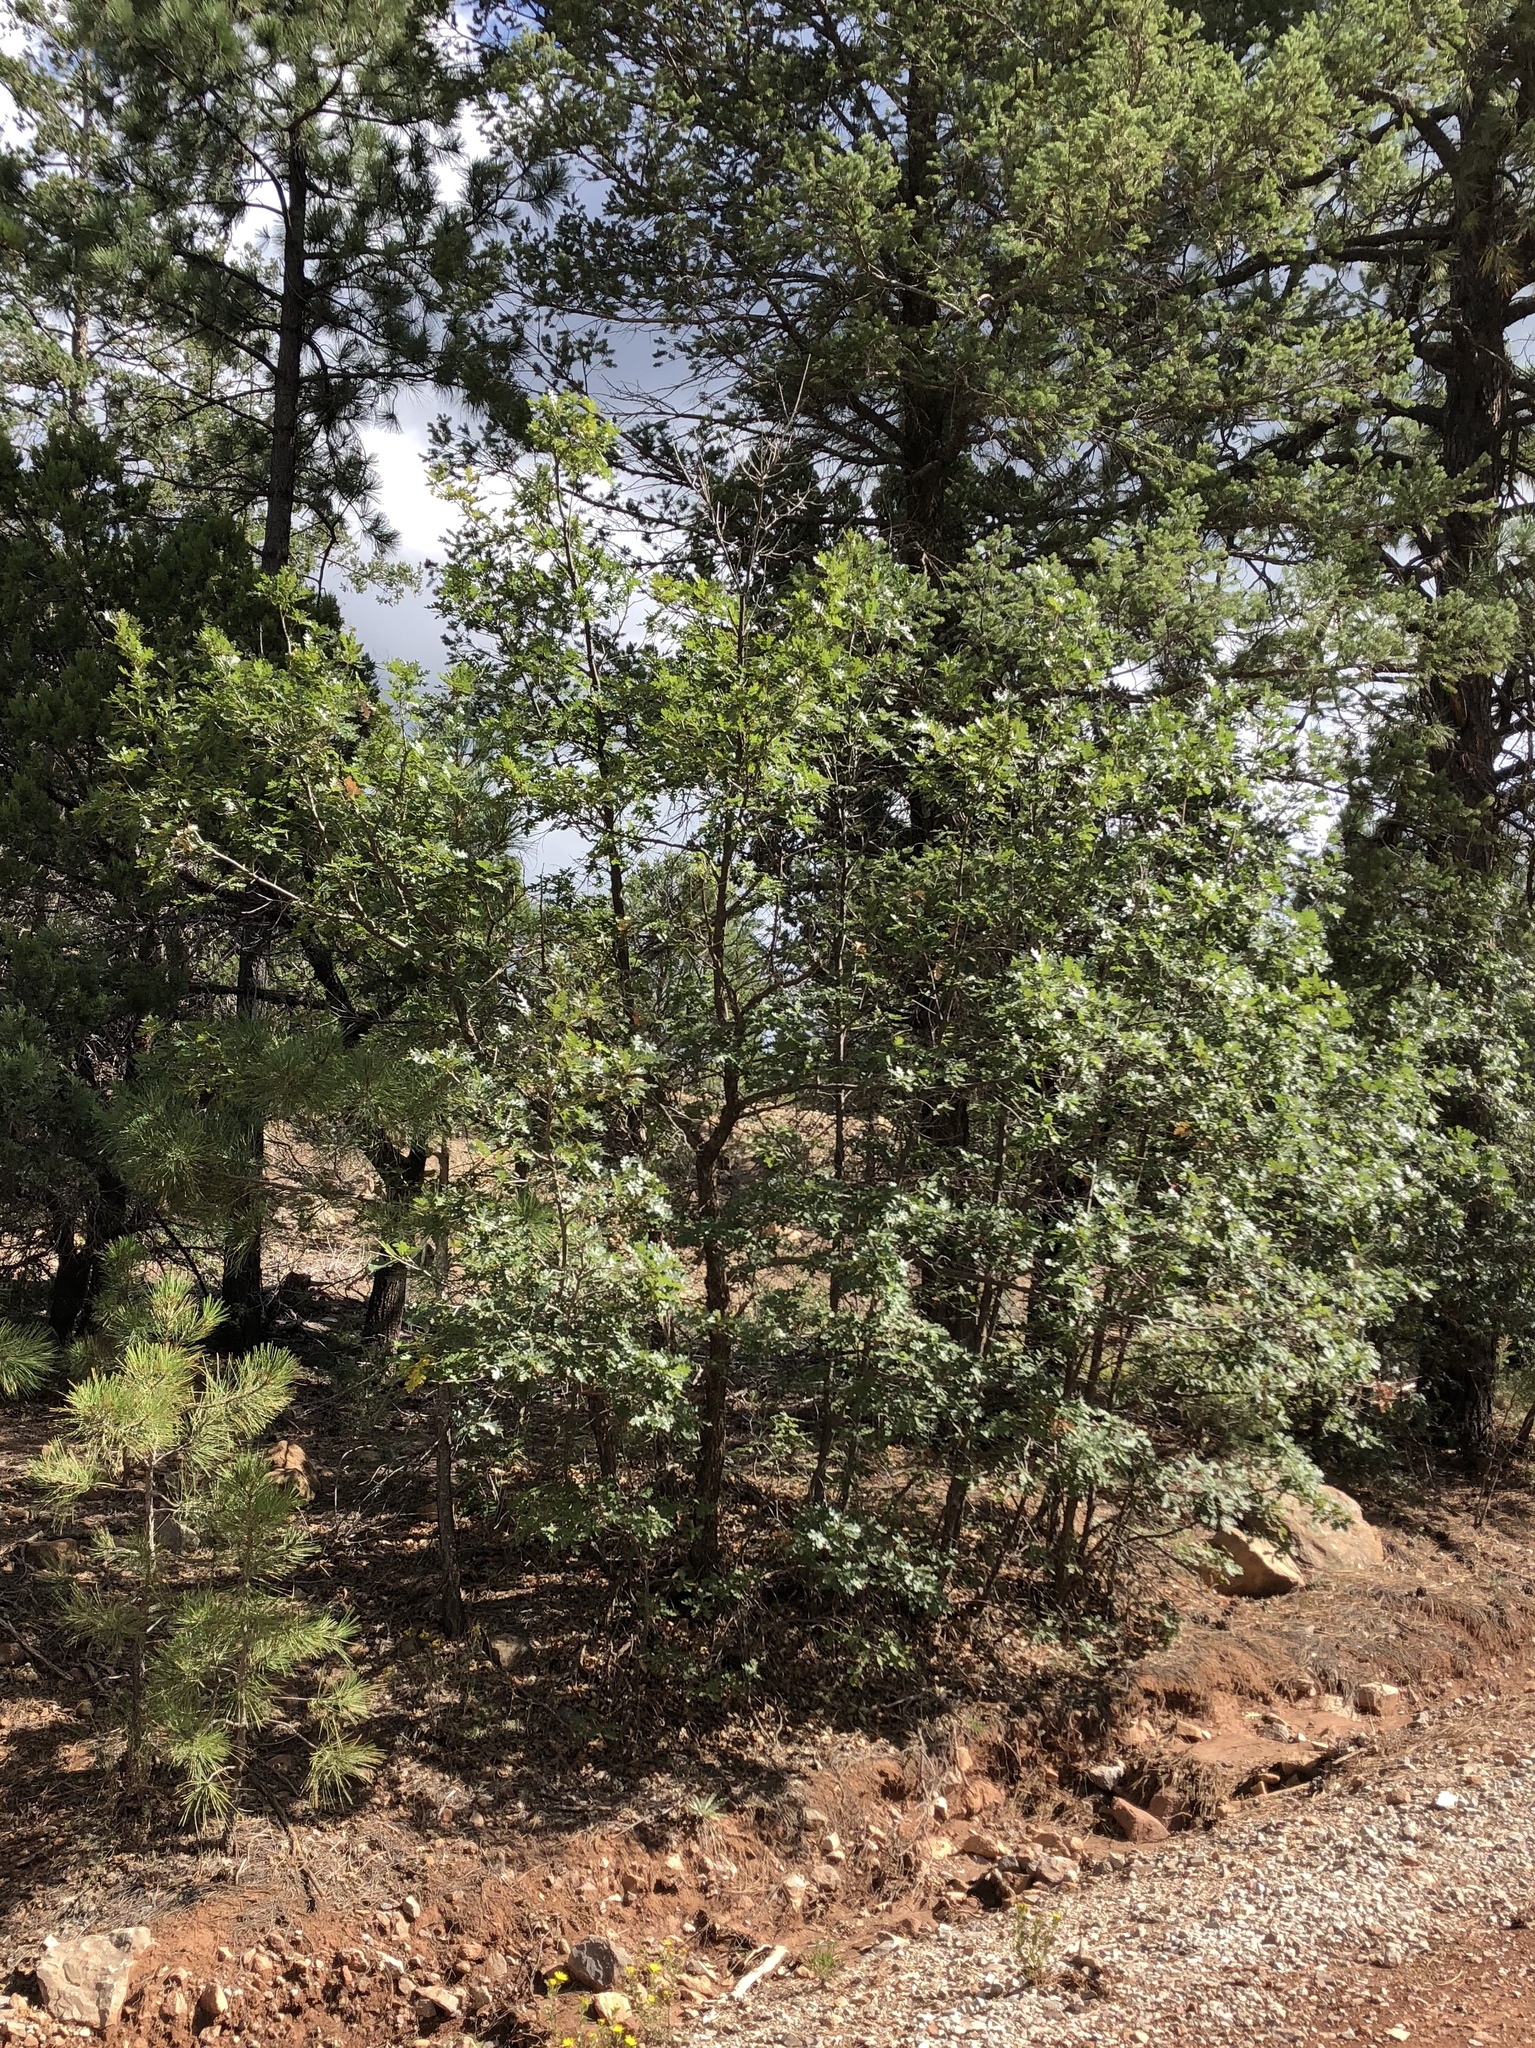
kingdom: Plantae
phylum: Tracheophyta
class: Magnoliopsida
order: Fagales
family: Fagaceae
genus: Quercus
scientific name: Quercus gambelii
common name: Gambel oak
